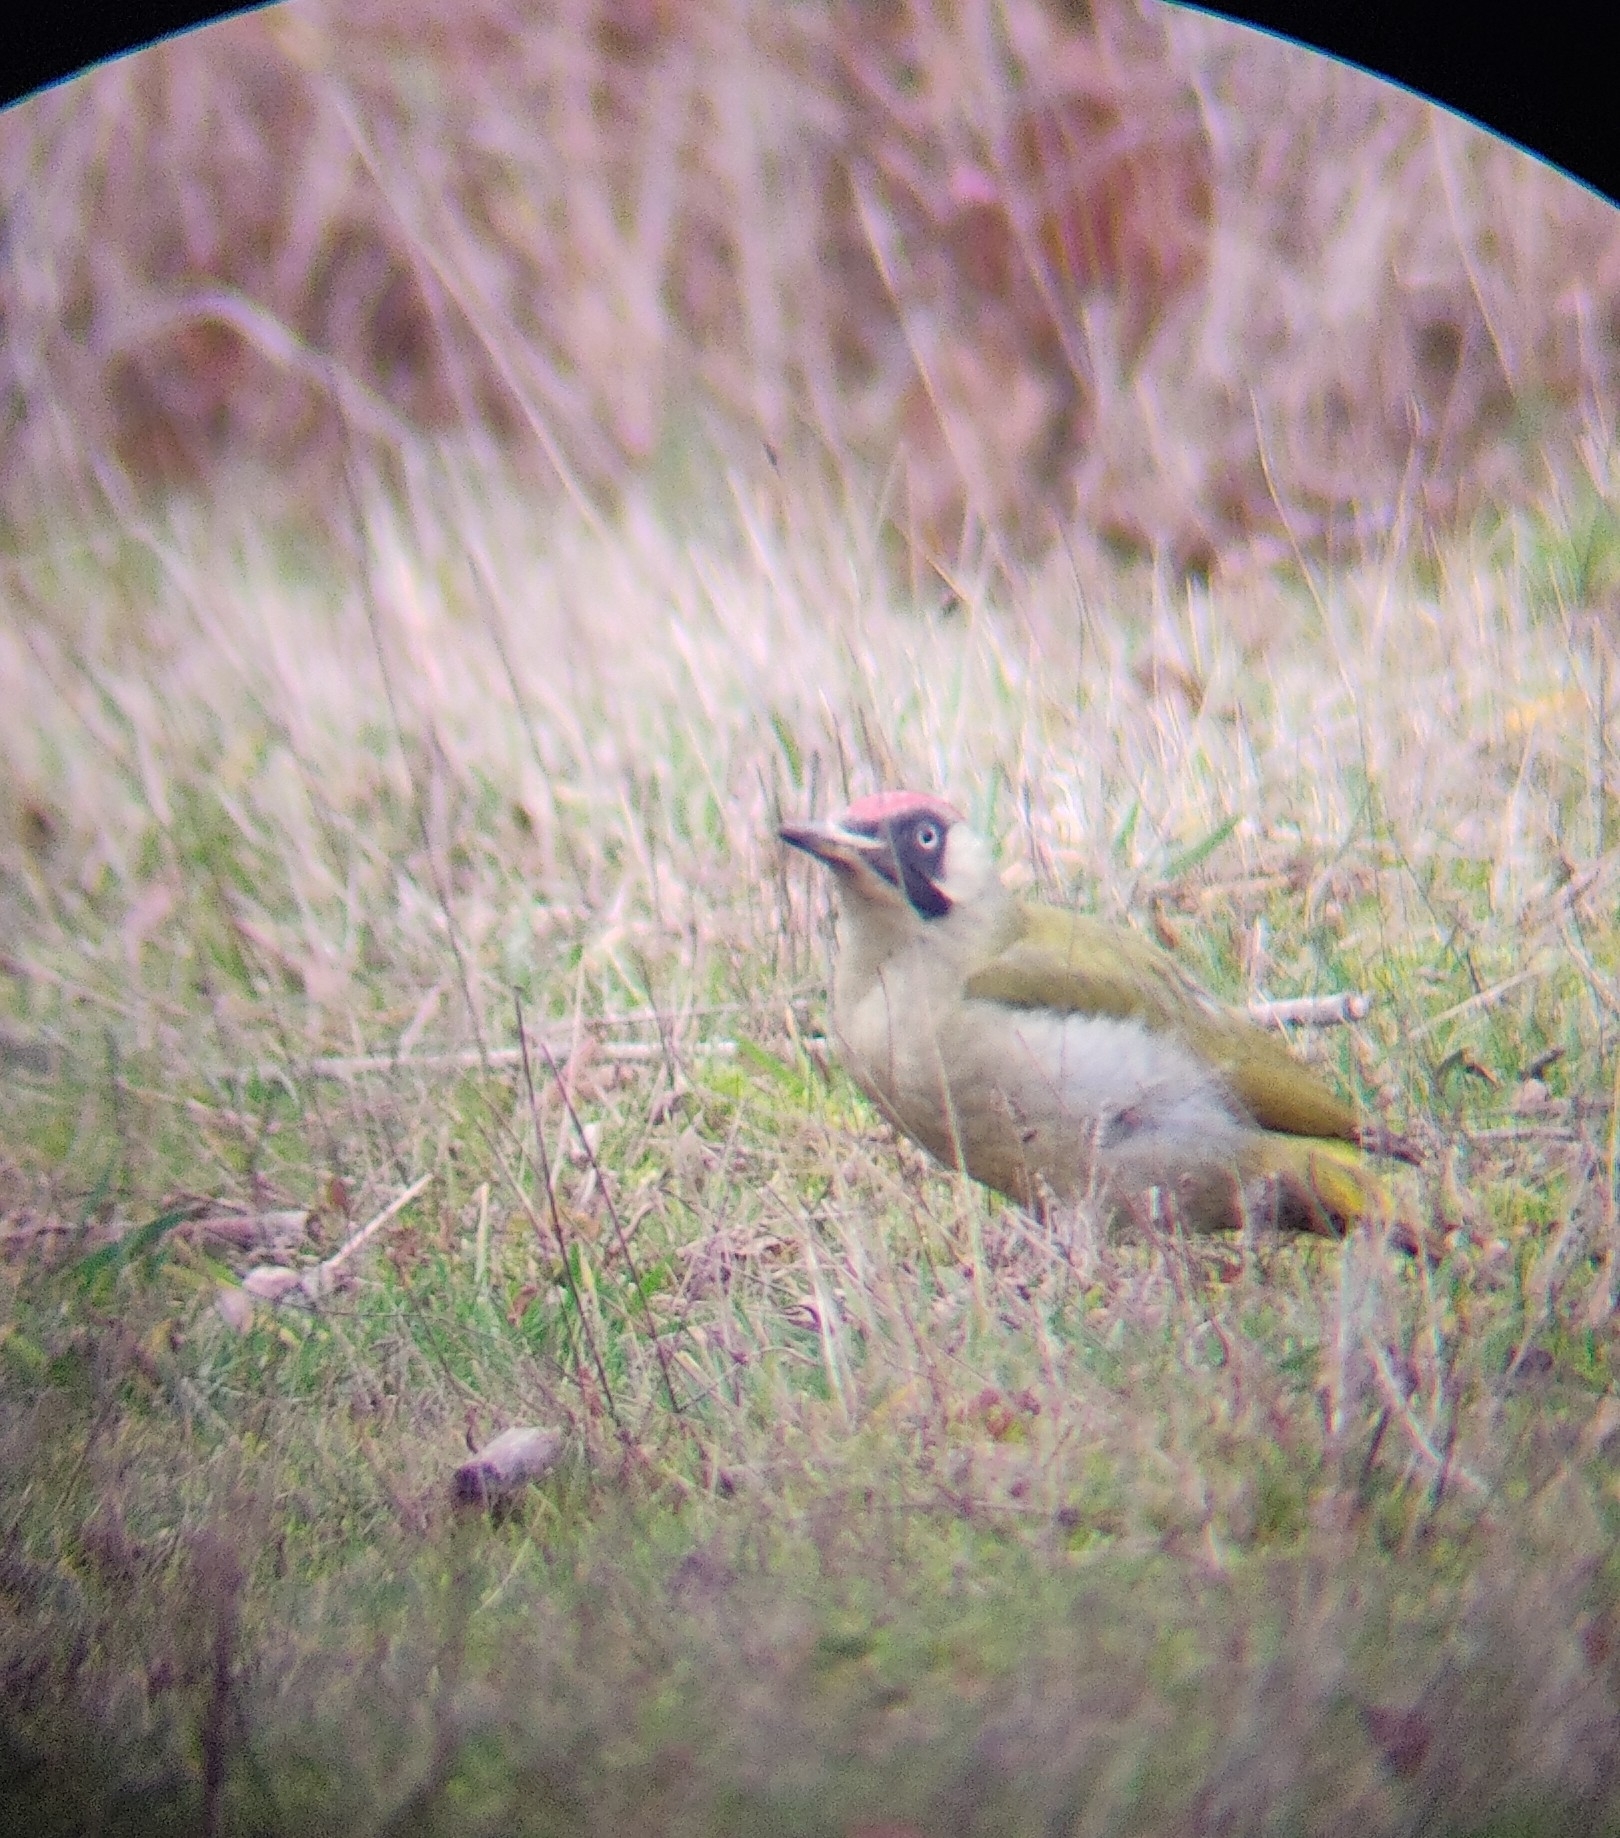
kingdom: Animalia
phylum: Chordata
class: Aves
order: Piciformes
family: Picidae
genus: Picus
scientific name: Picus viridis
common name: European green woodpecker
